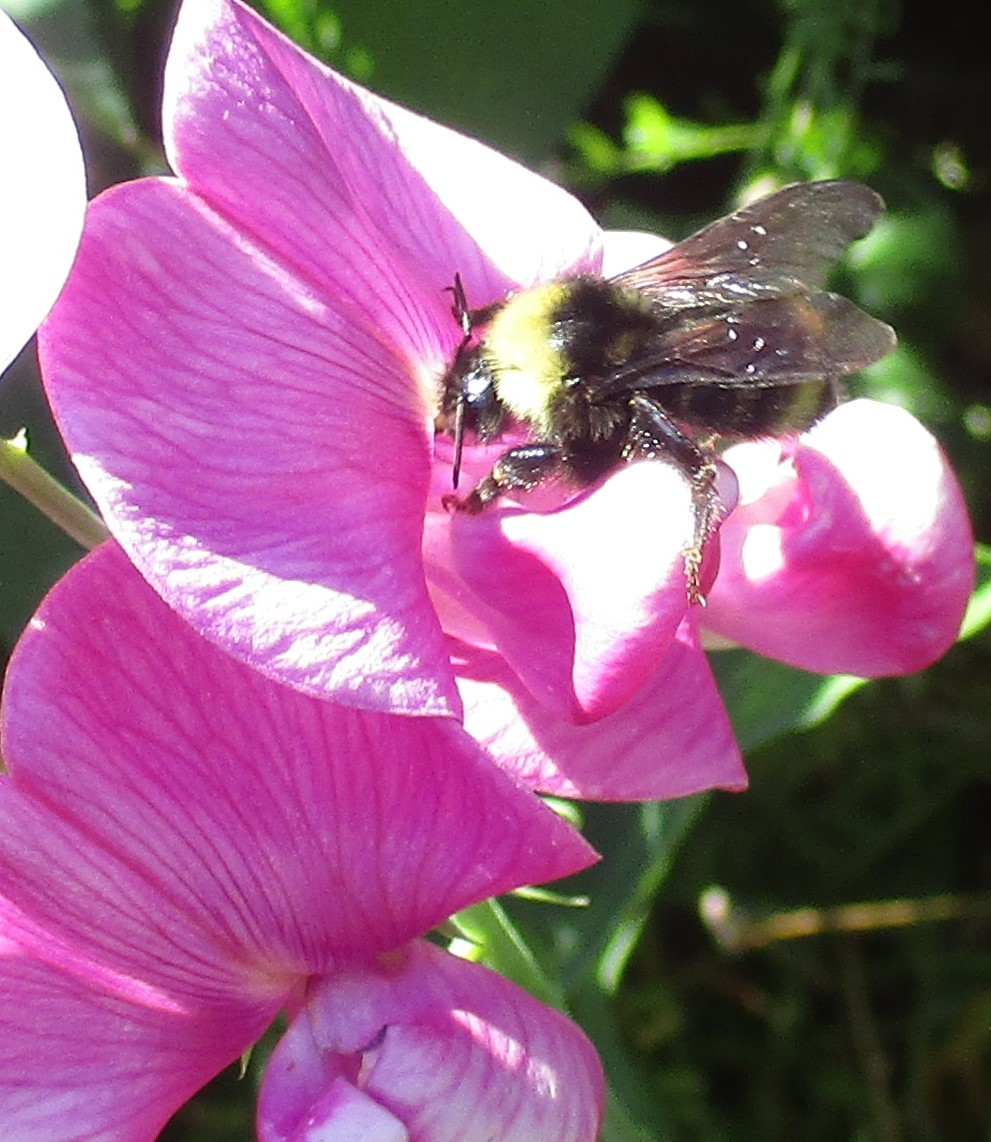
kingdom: Animalia
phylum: Arthropoda
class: Insecta
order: Hymenoptera
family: Apidae
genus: Bombus
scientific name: Bombus californicus
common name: California bumble bee
